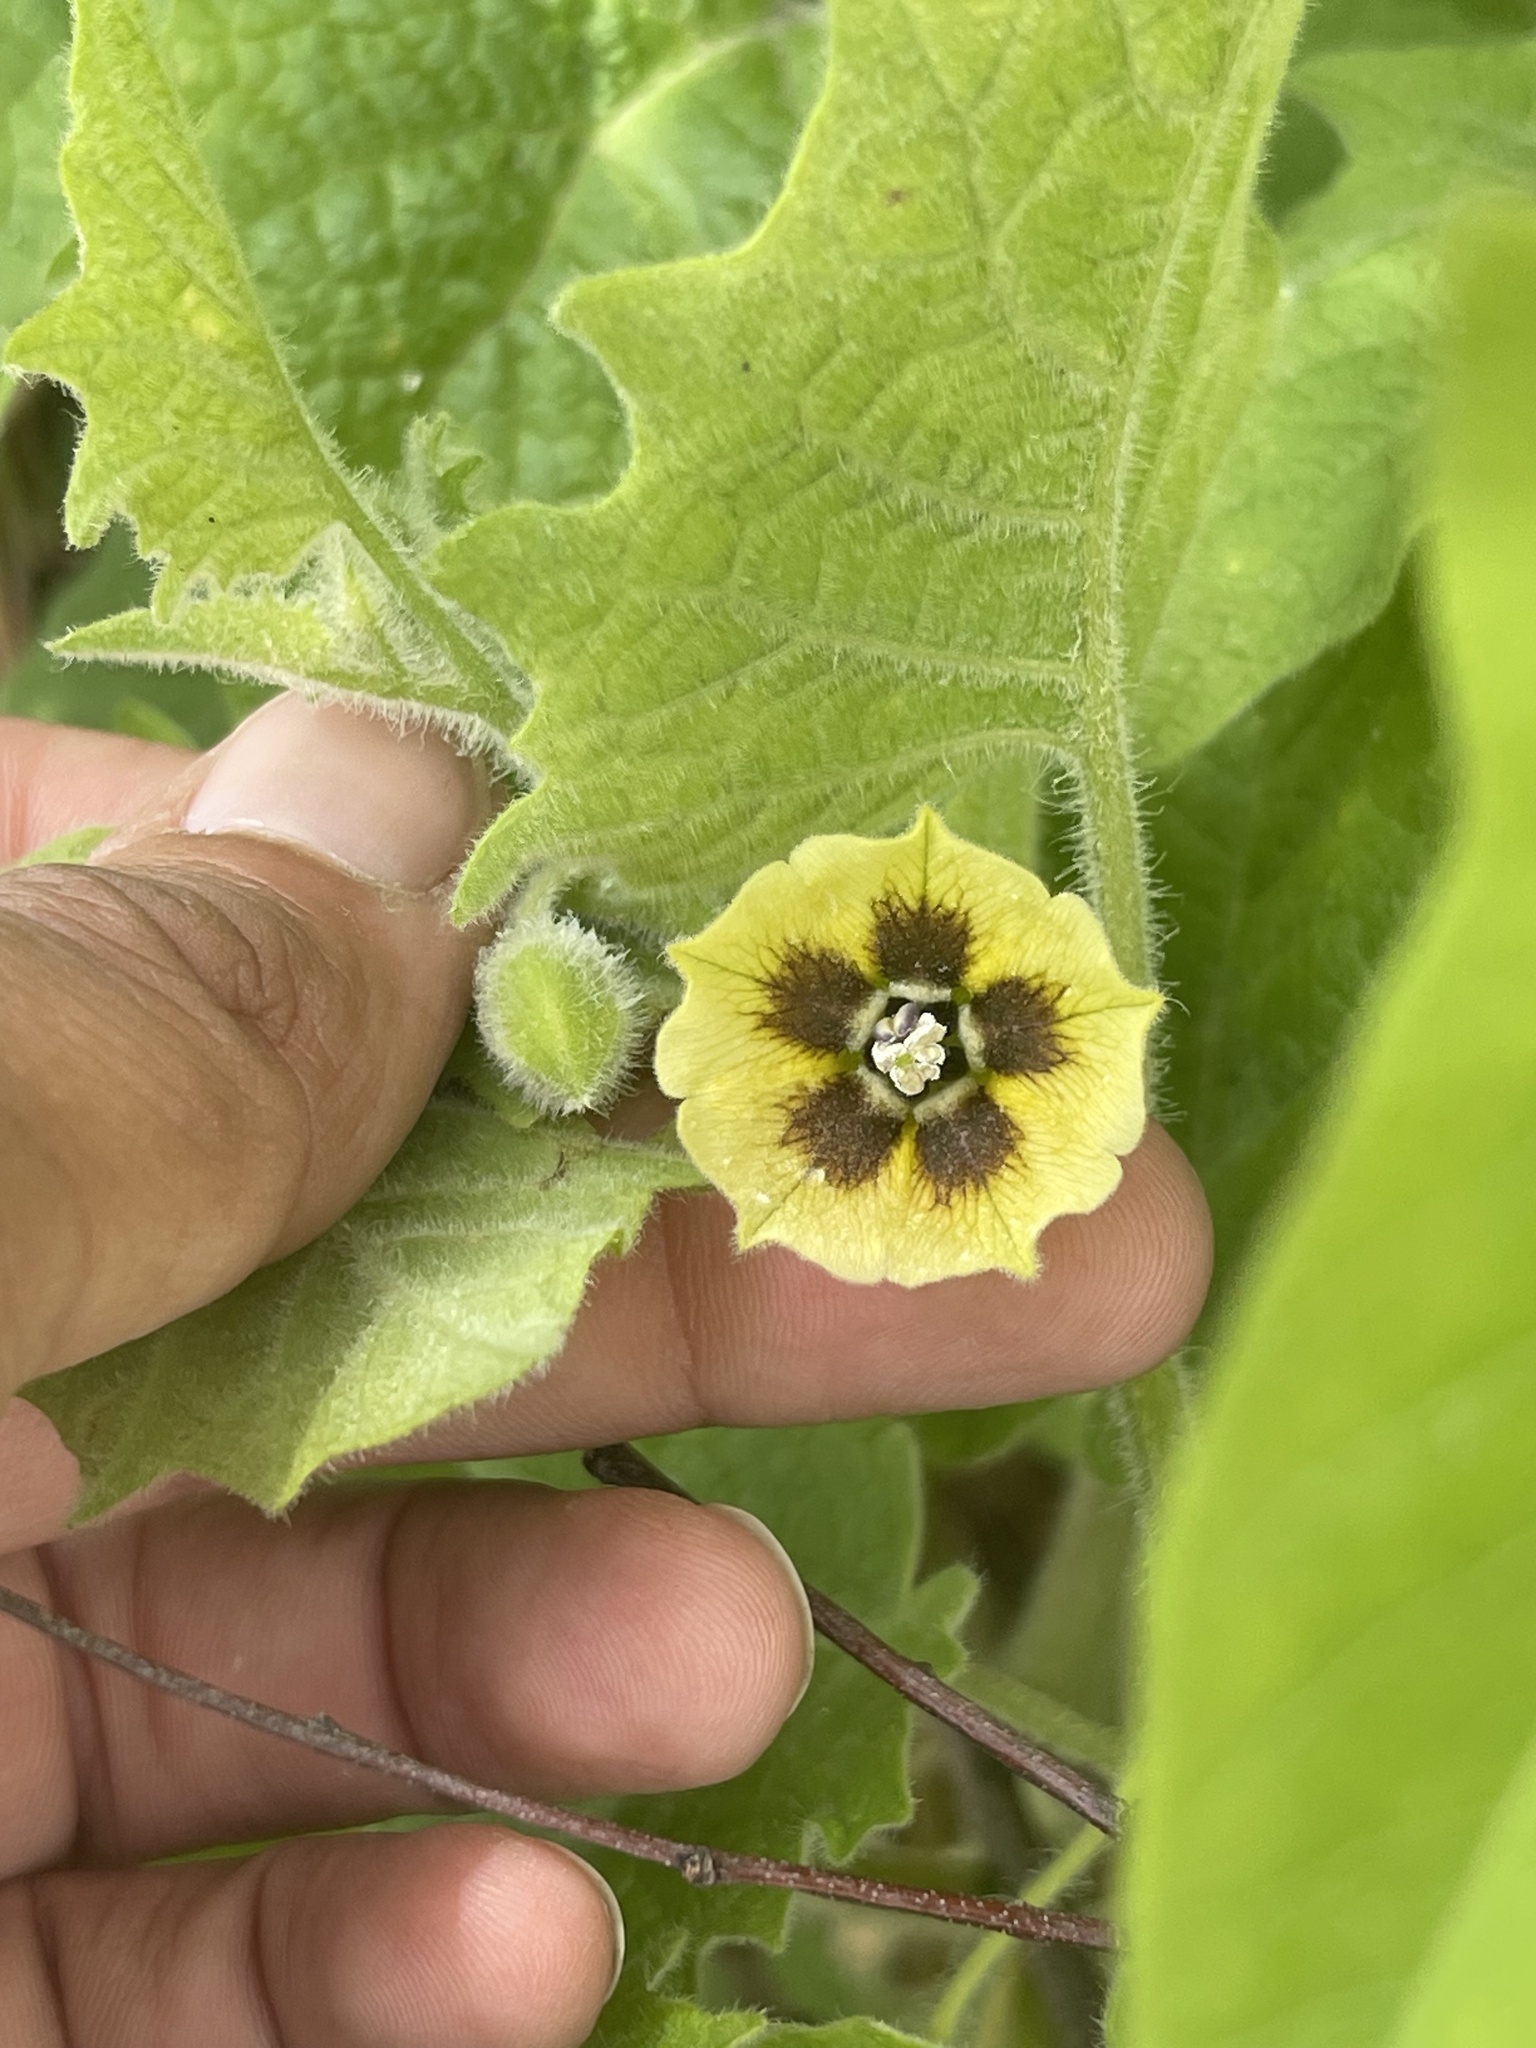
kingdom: Plantae
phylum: Tracheophyta
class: Magnoliopsida
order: Solanales
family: Solanaceae
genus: Physalis
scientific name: Physalis heterophylla
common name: Clammy ground-cherry
